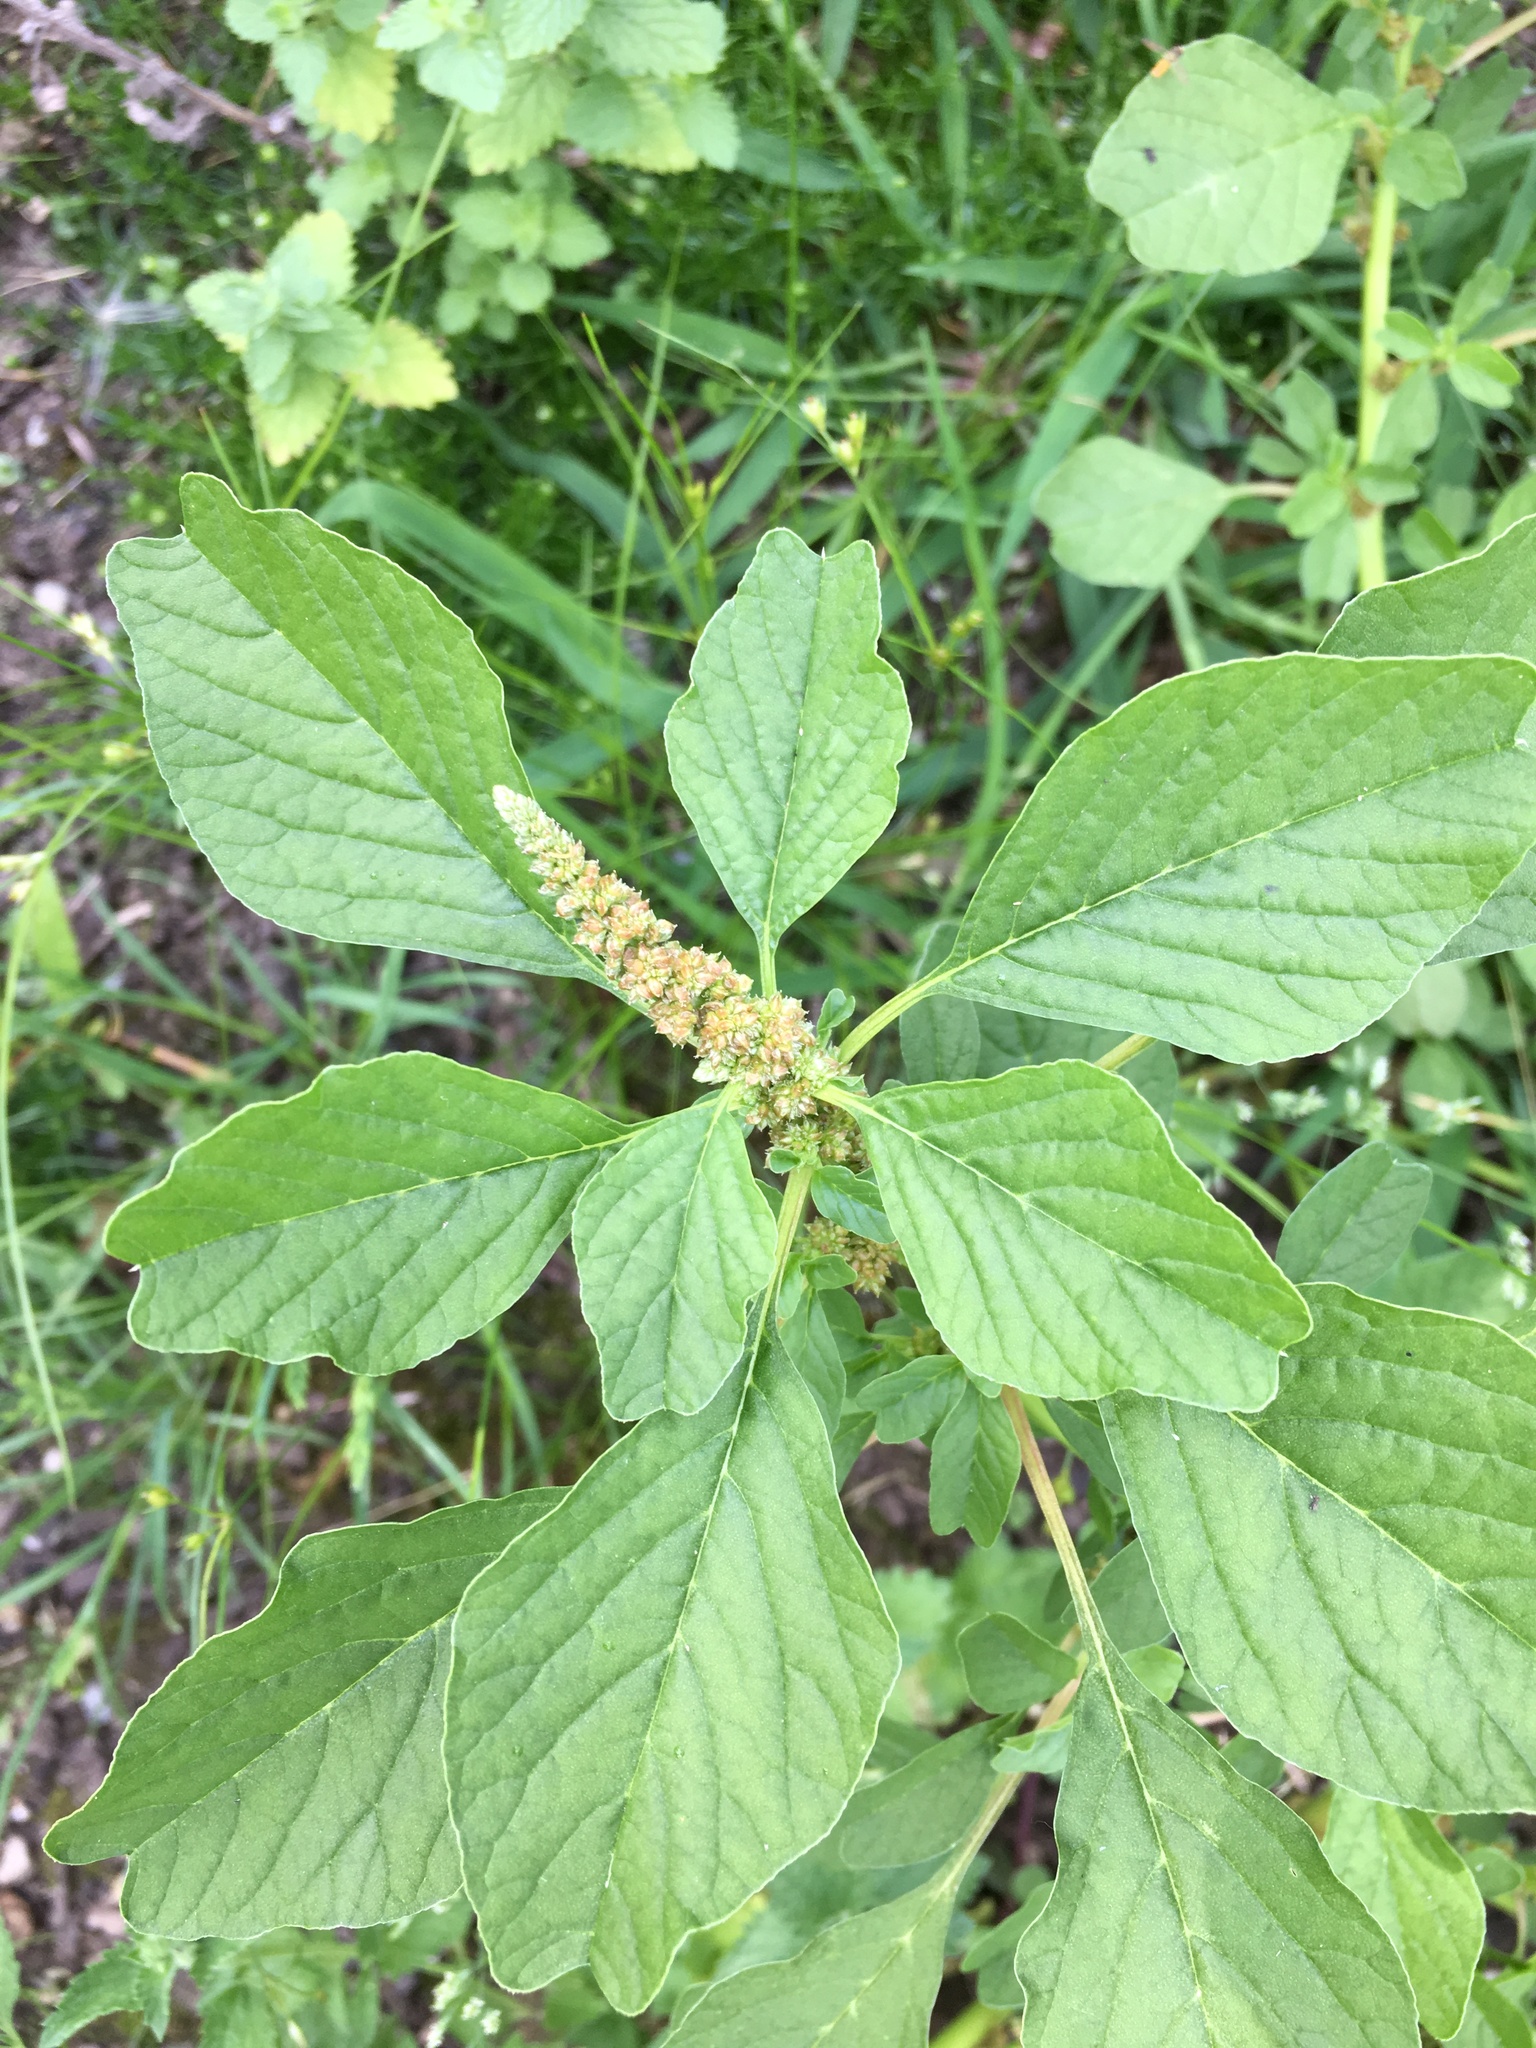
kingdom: Plantae
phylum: Tracheophyta
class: Magnoliopsida
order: Caryophyllales
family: Amaranthaceae
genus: Amaranthus
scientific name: Amaranthus blitum
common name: Purple amaranth
